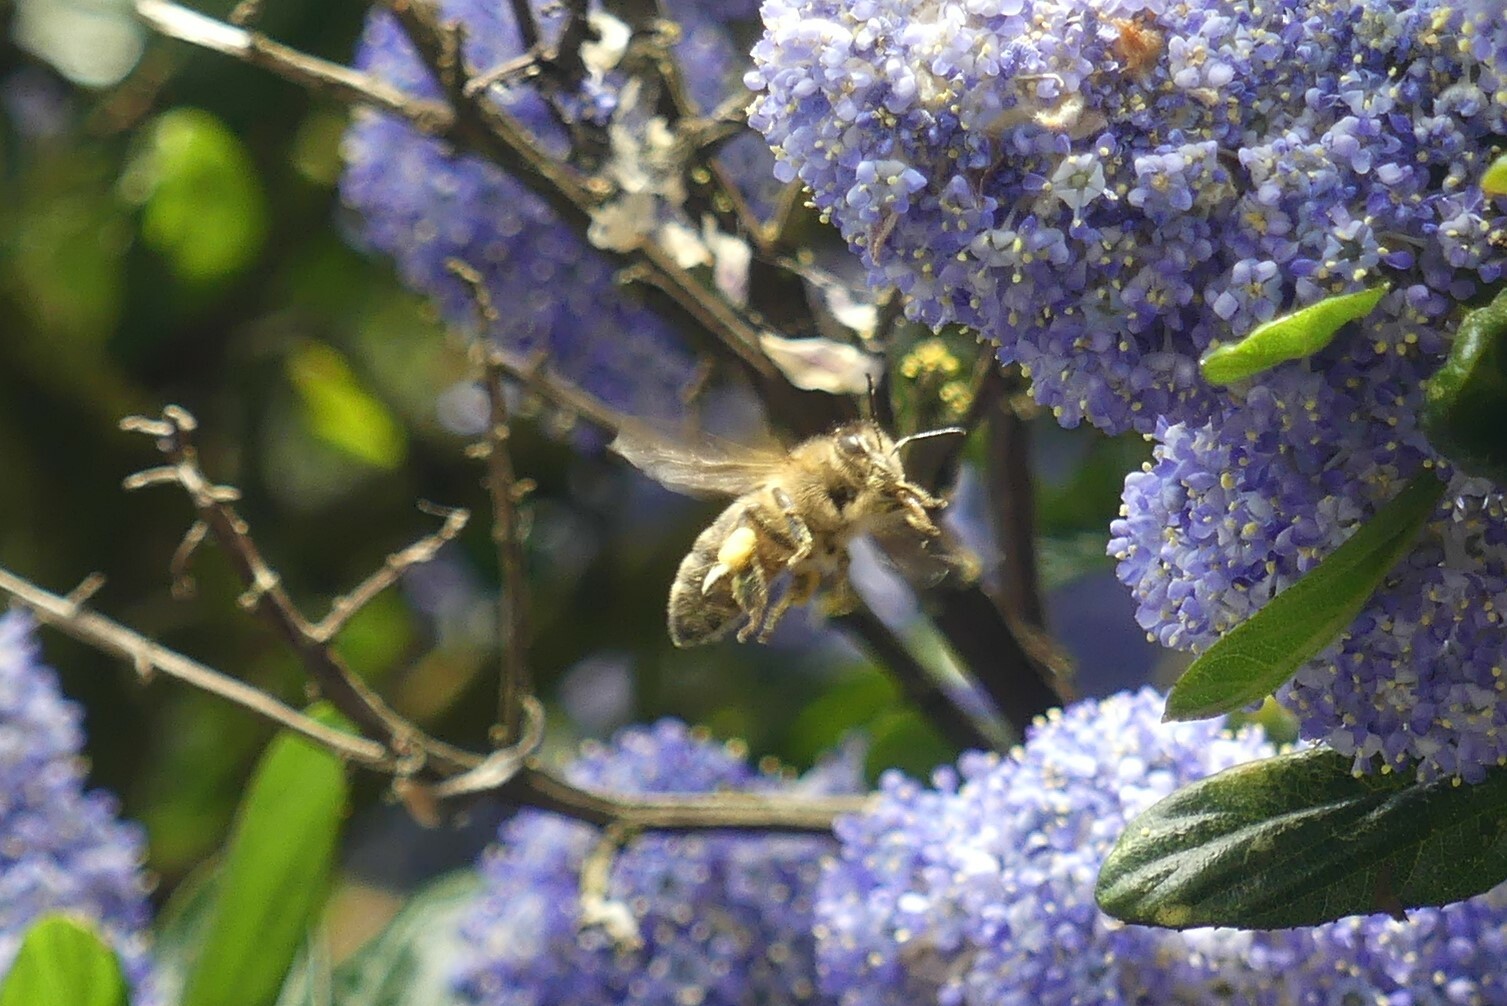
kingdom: Animalia
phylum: Arthropoda
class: Insecta
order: Hymenoptera
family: Apidae
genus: Apis
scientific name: Apis mellifera
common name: Honey bee
